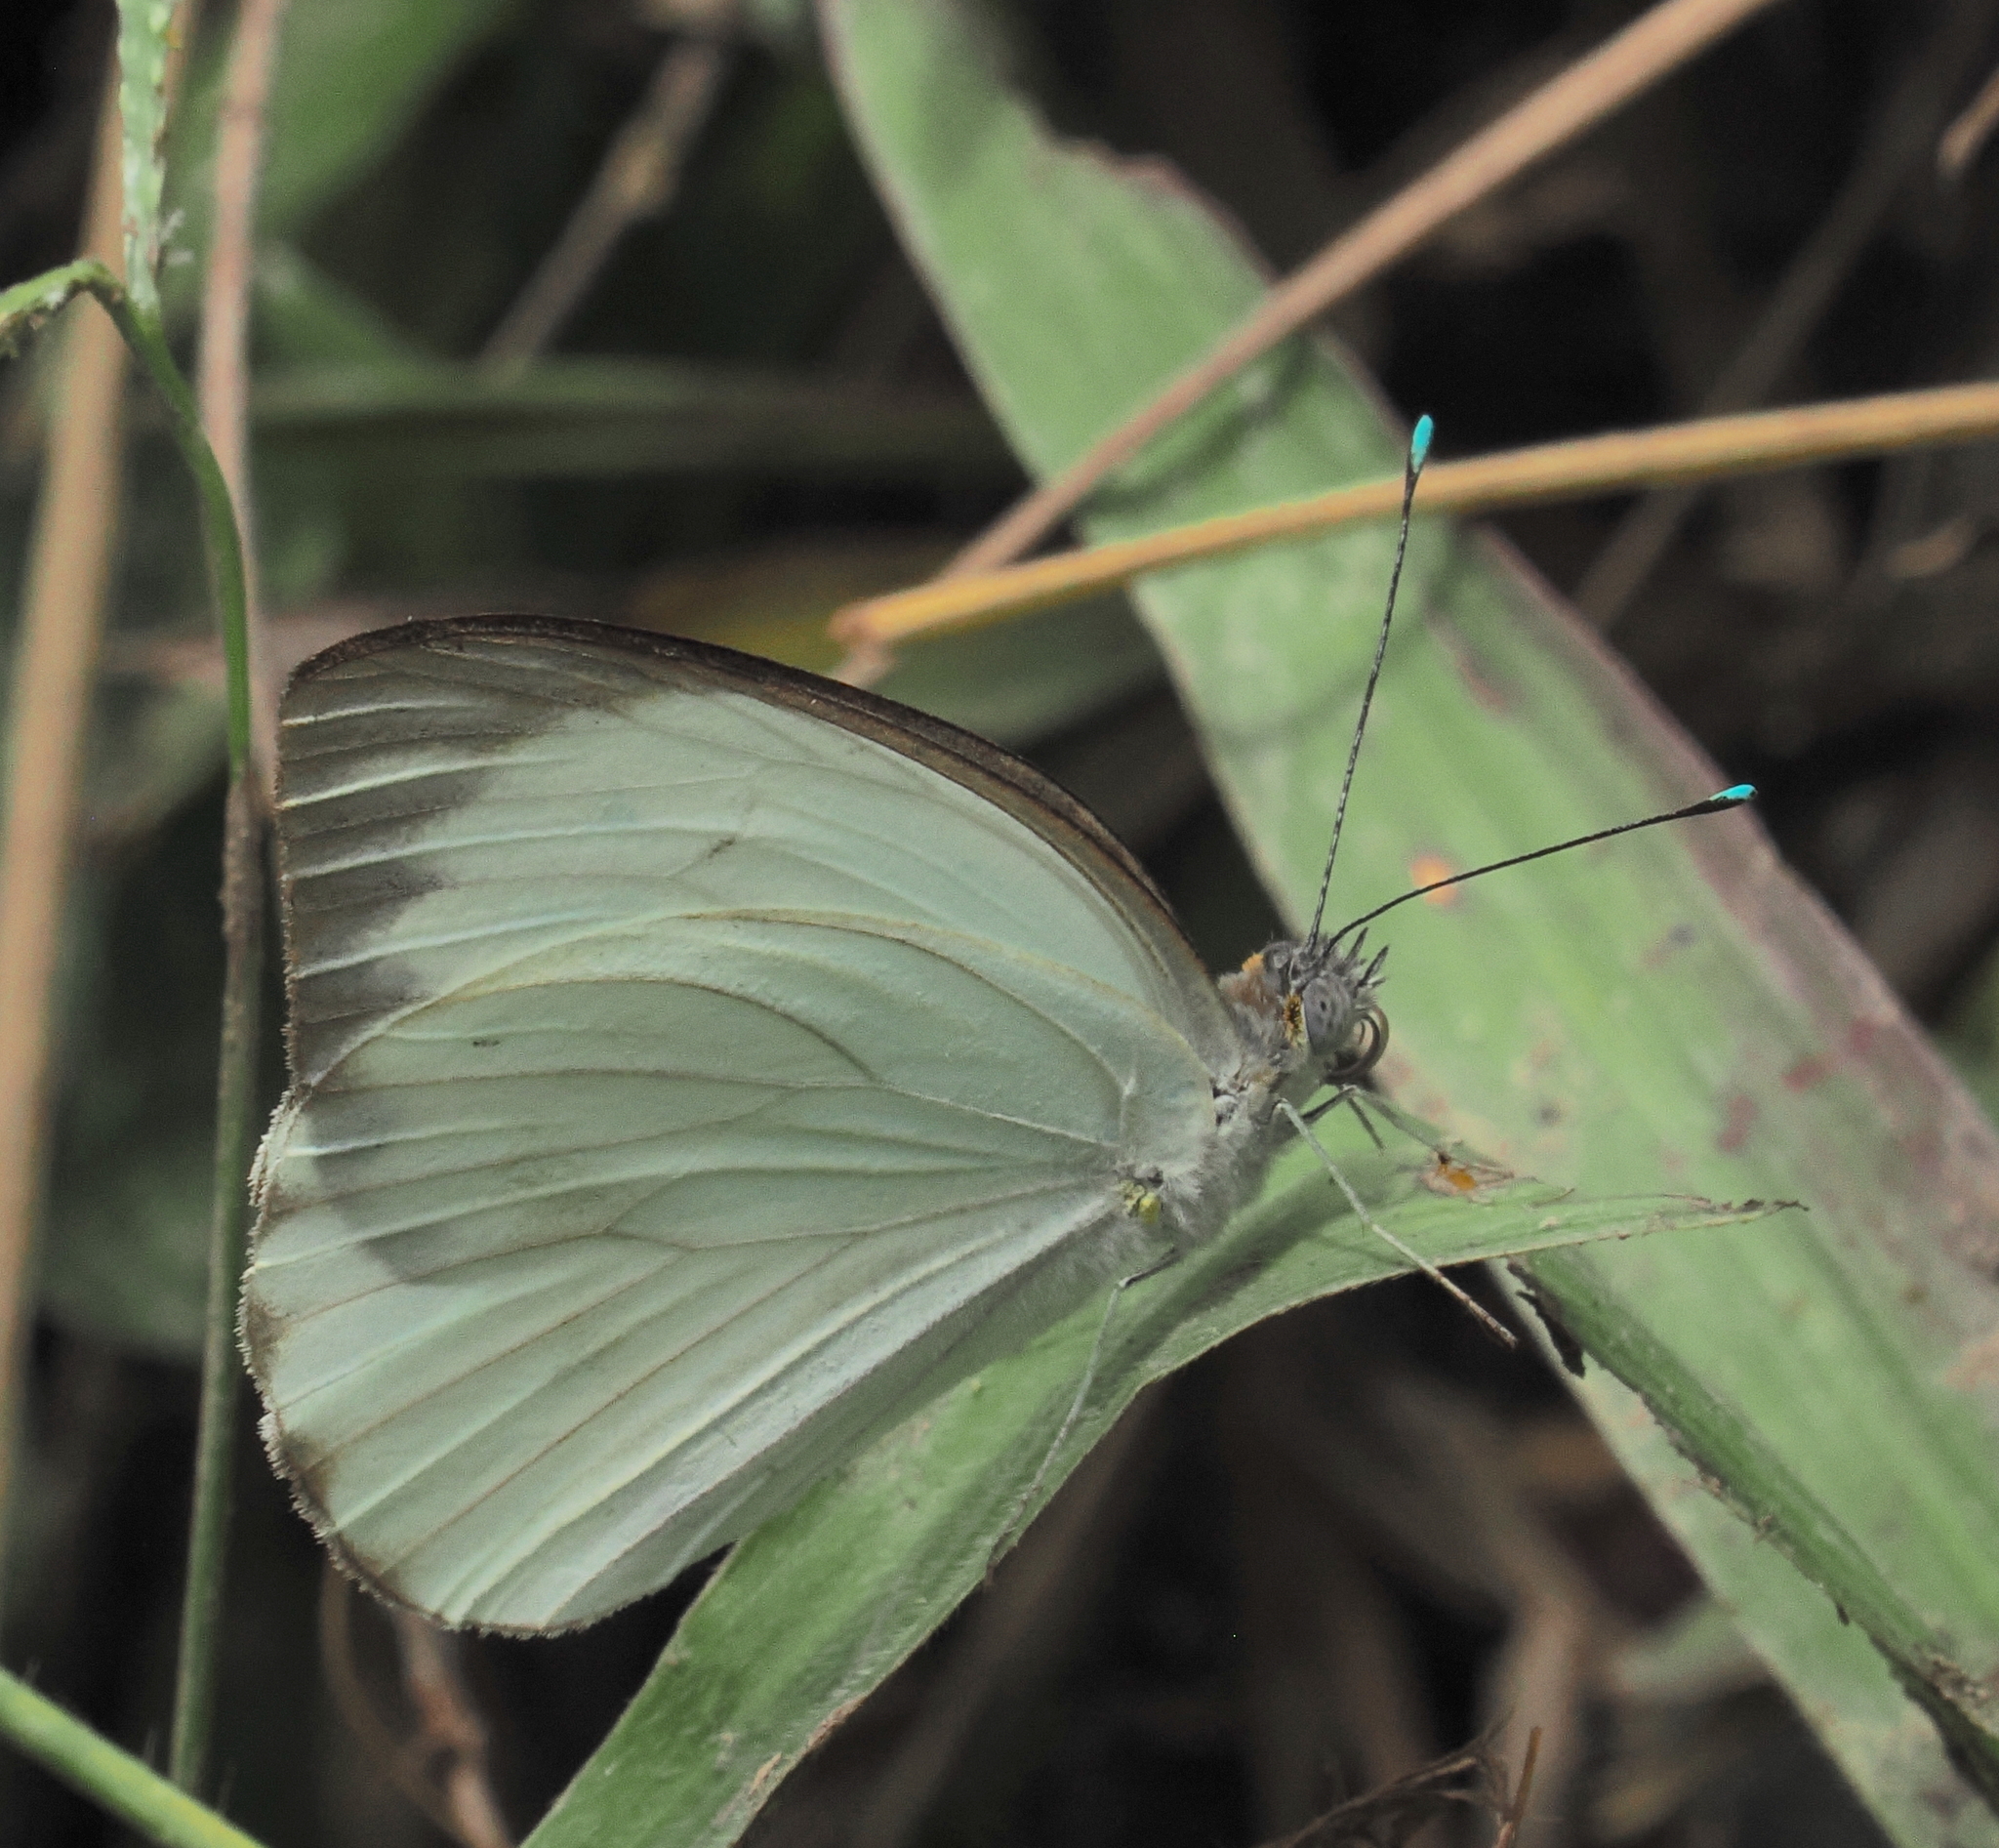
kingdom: Animalia
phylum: Arthropoda
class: Insecta
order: Lepidoptera
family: Pieridae
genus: Ascia
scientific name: Ascia monuste
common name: Great southern white
